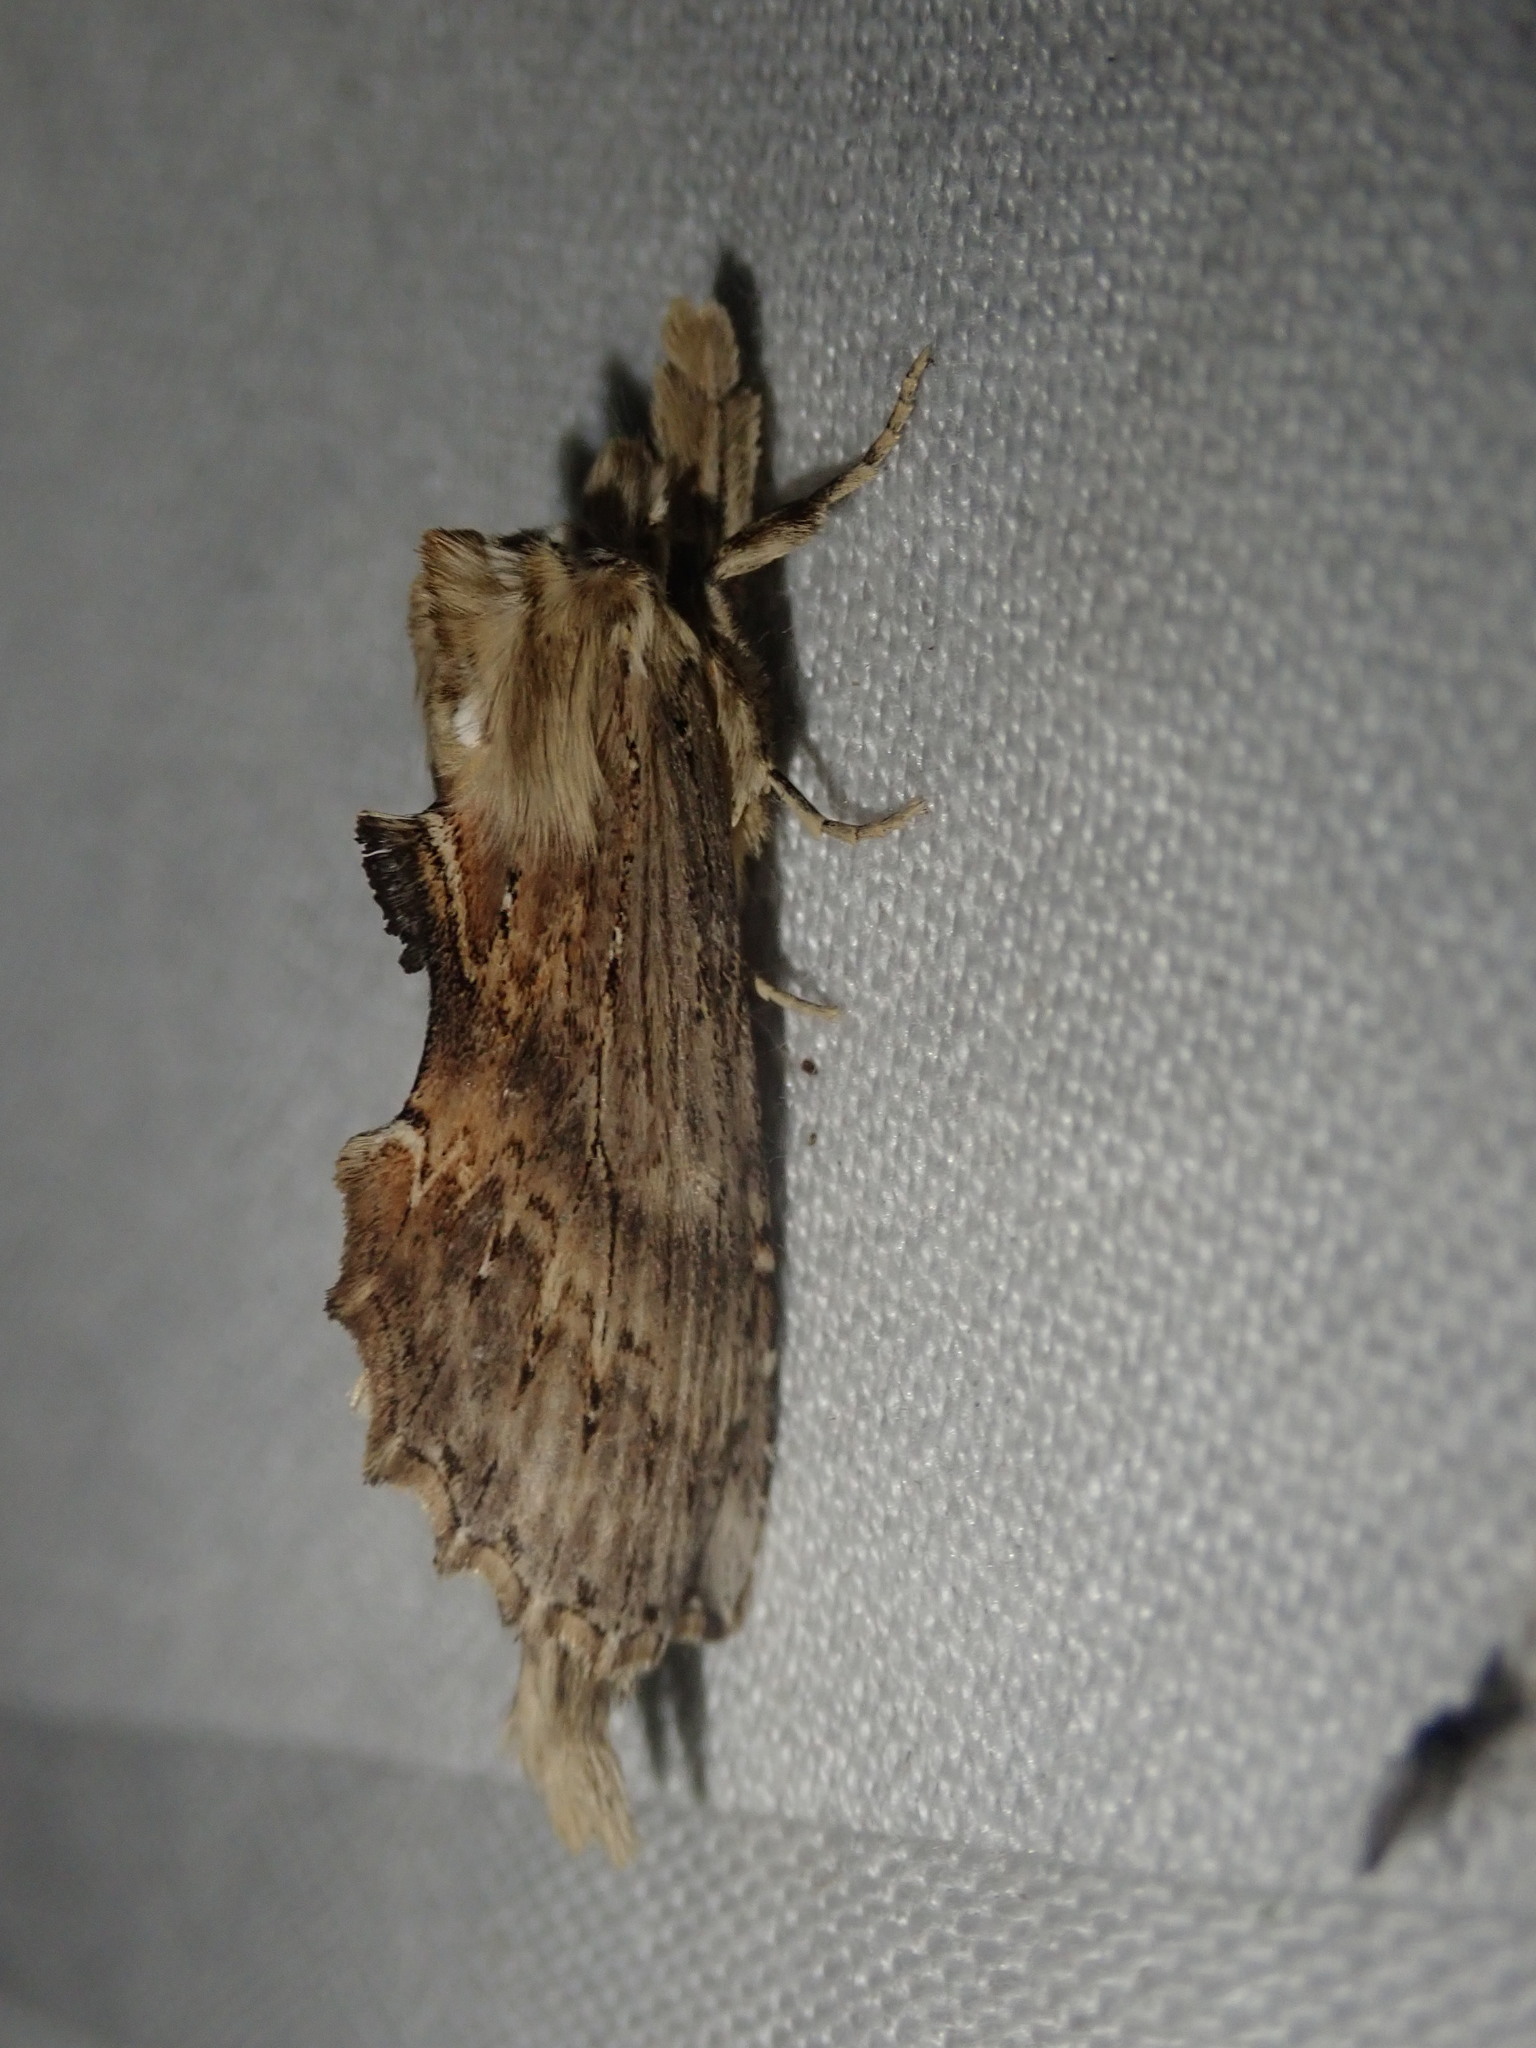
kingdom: Animalia
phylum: Arthropoda
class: Insecta
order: Lepidoptera
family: Notodontidae
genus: Pterostoma
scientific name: Pterostoma palpina
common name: Pale prominent
